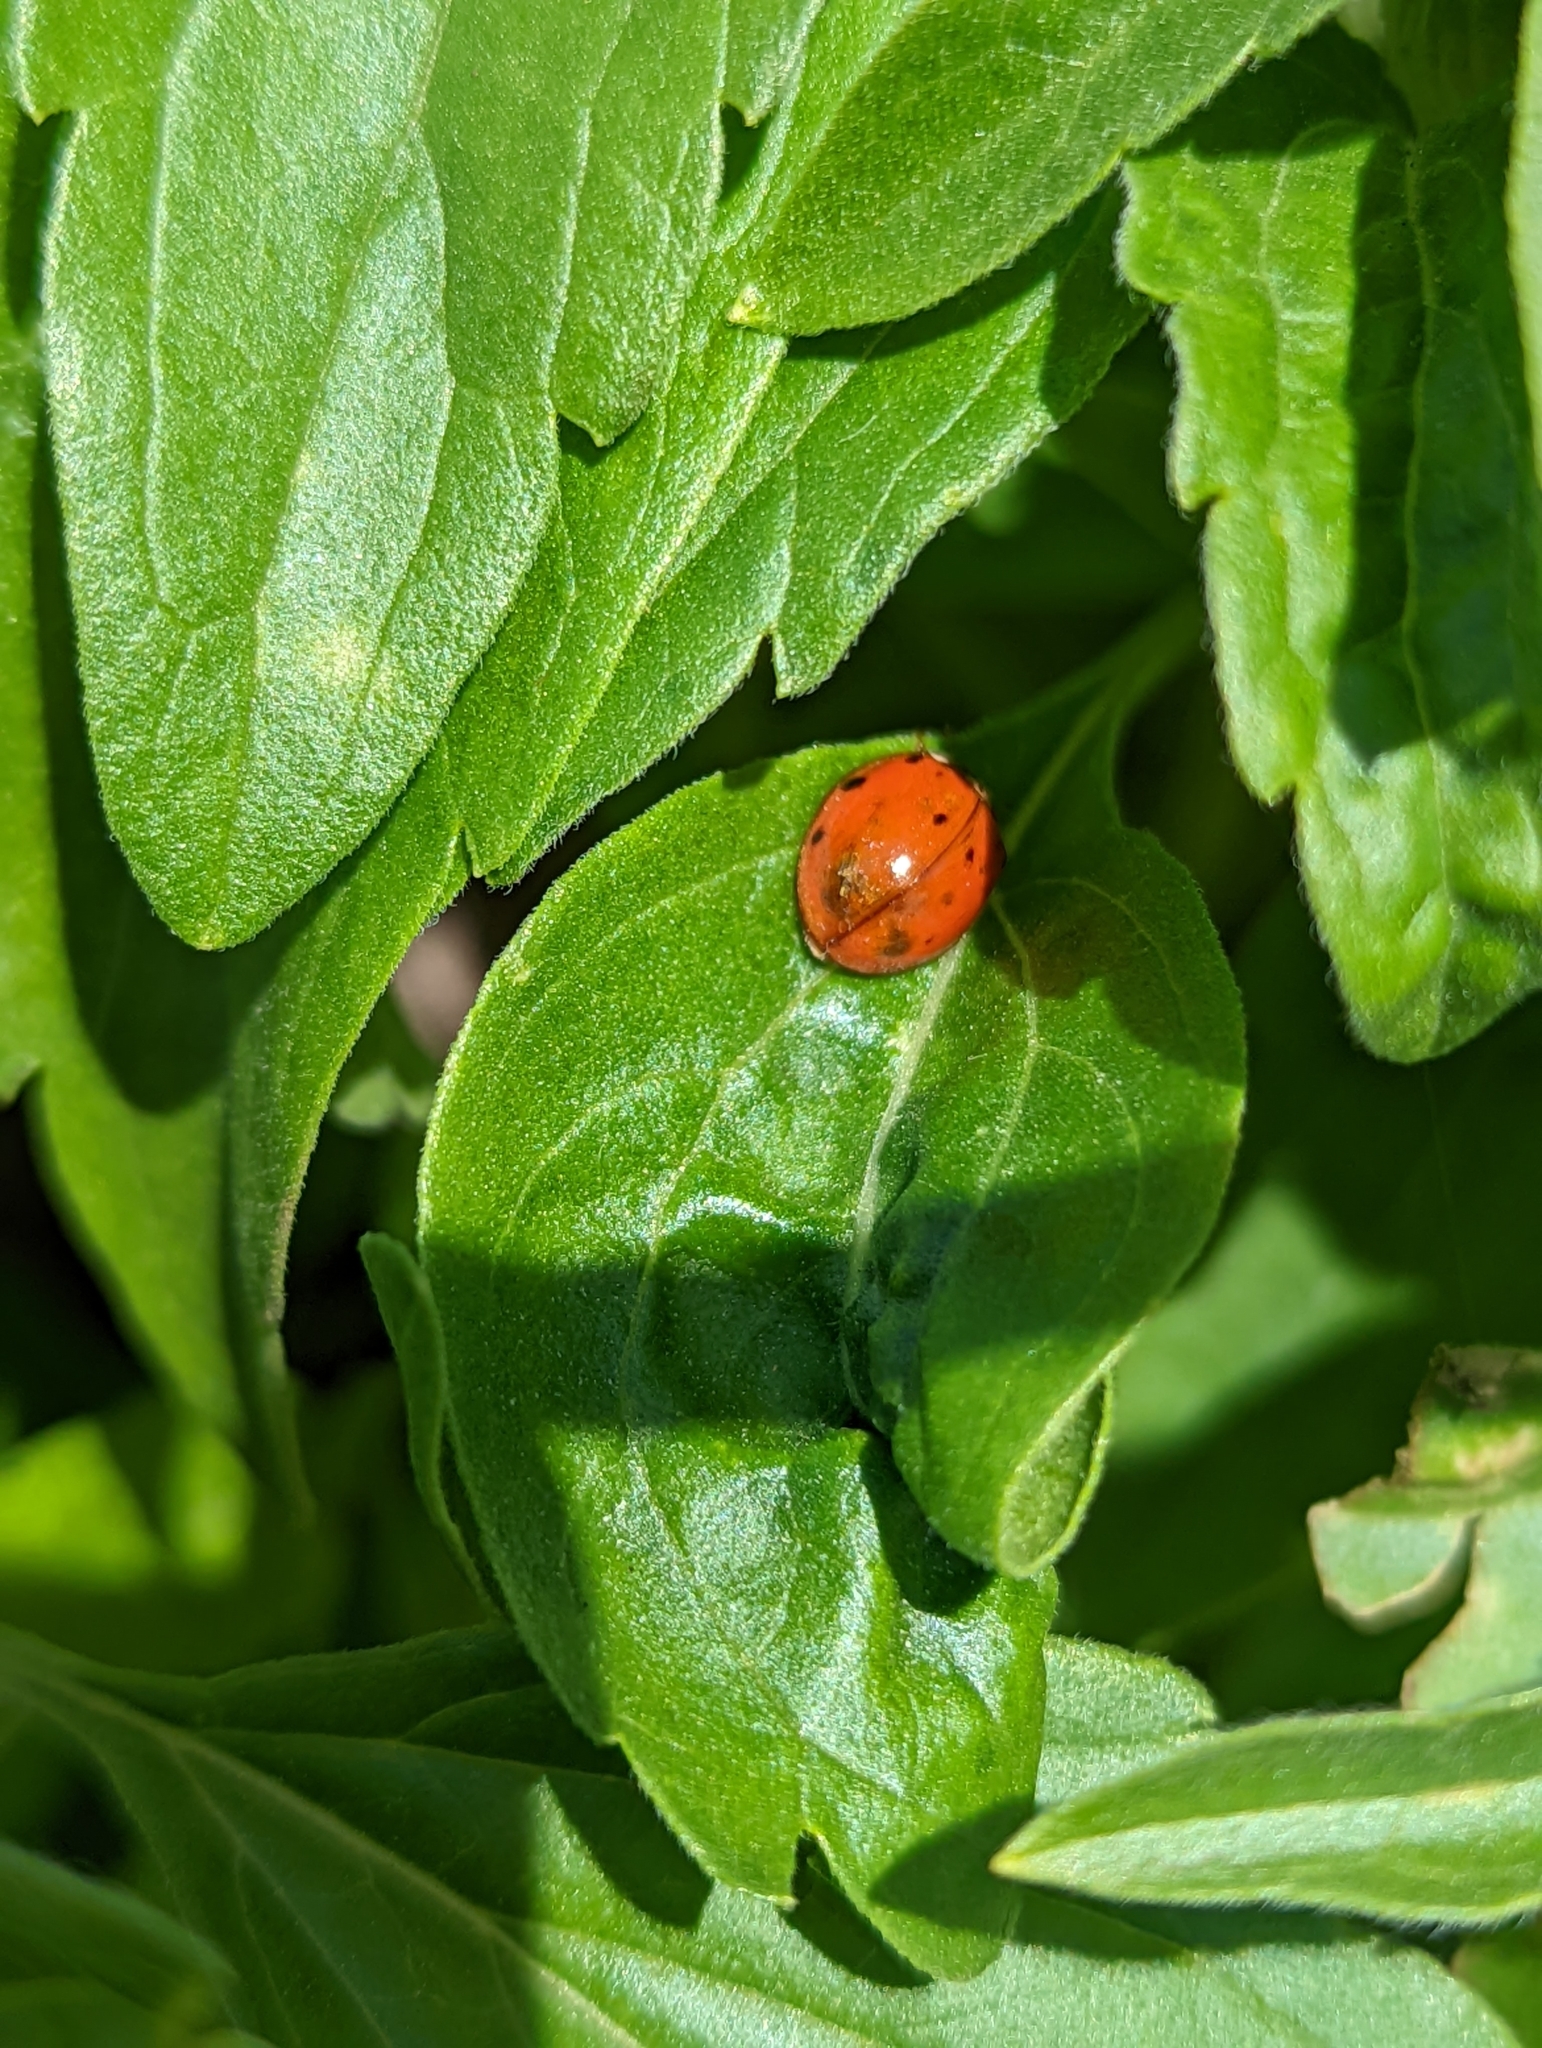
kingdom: Animalia
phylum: Arthropoda
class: Insecta
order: Coleoptera
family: Coccinellidae
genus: Harmonia
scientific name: Harmonia axyridis
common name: Harlequin ladybird
